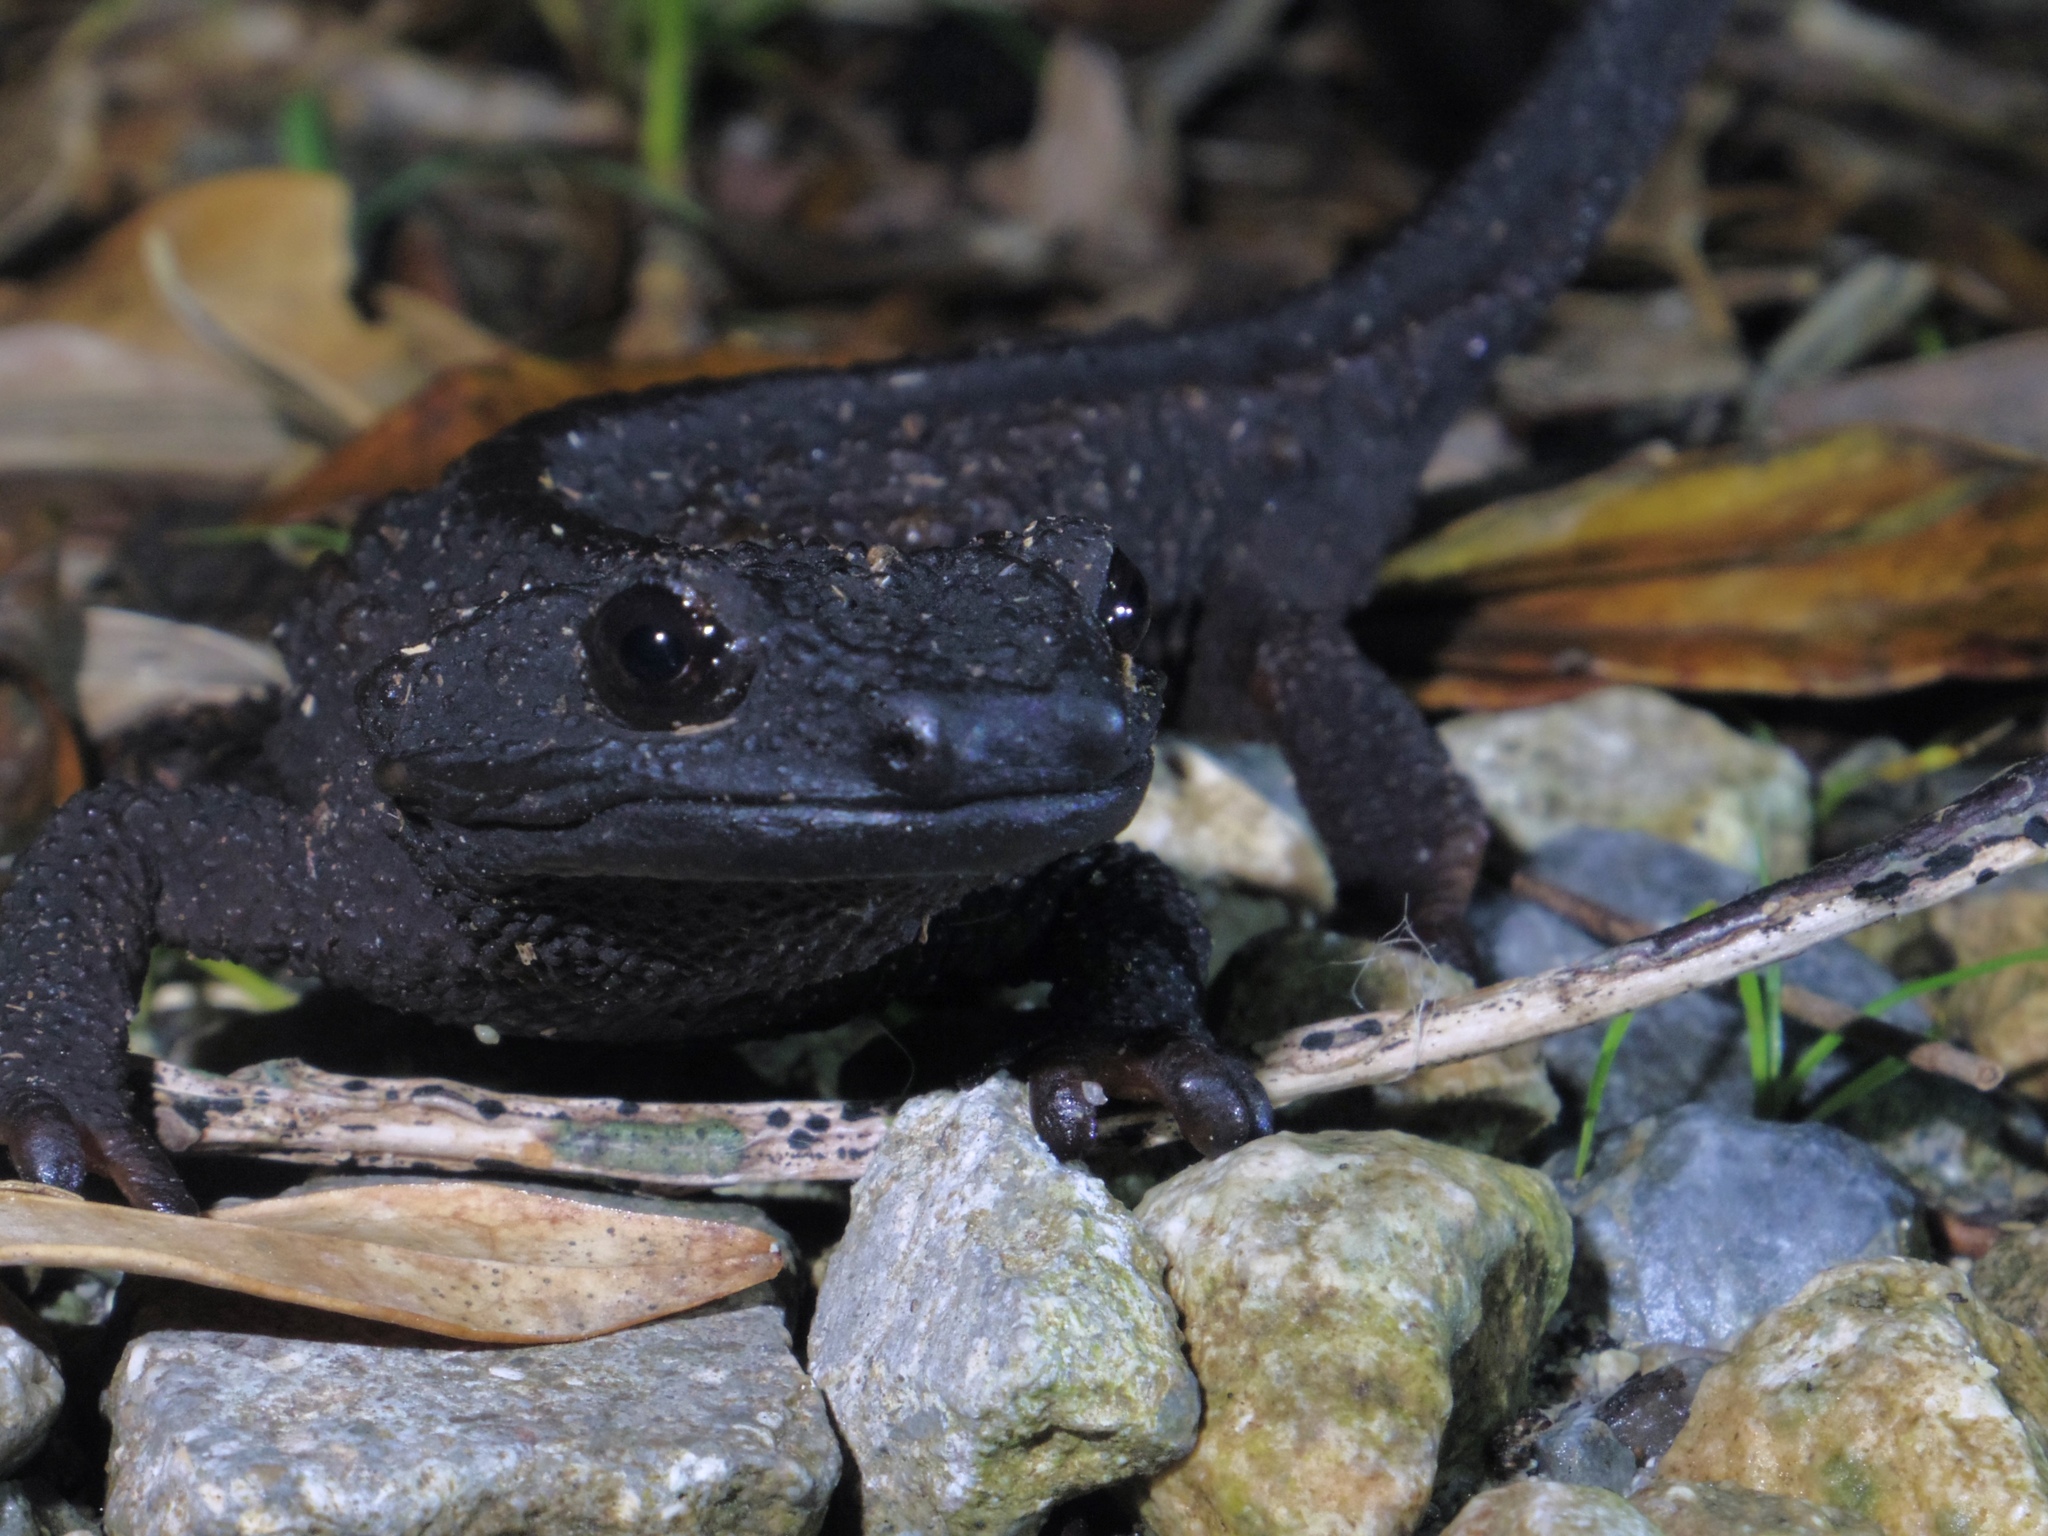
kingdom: Animalia
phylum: Chordata
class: Amphibia
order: Caudata
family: Salamandridae
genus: Echinotriton
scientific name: Echinotriton andersoni
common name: Anderson's crocodile newt
